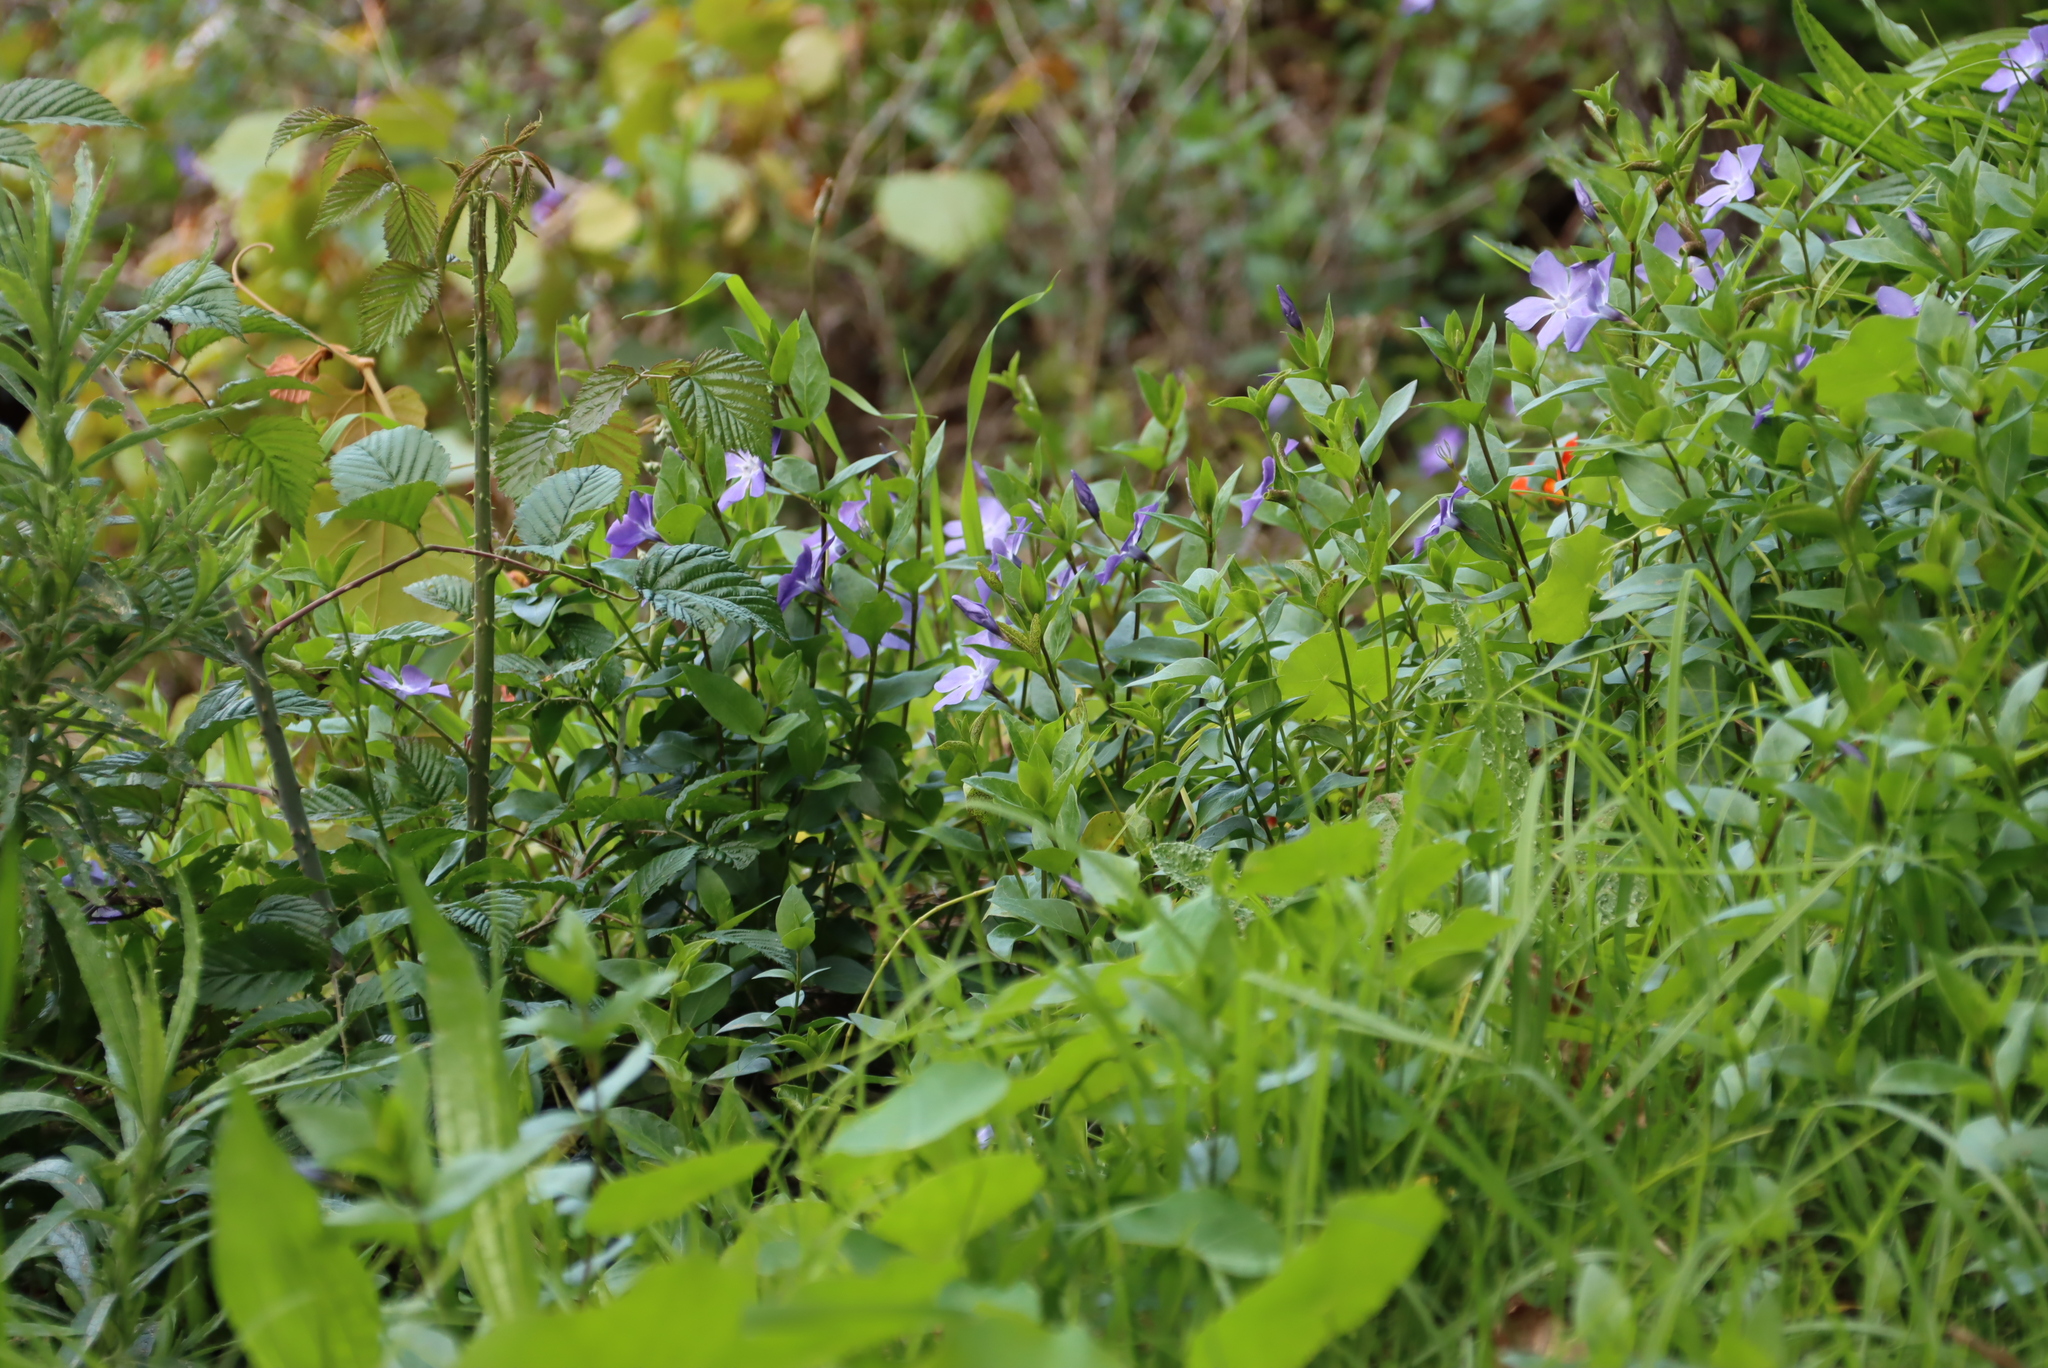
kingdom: Plantae
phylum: Tracheophyta
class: Magnoliopsida
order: Gentianales
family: Apocynaceae
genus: Vinca
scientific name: Vinca major
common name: Greater periwinkle
